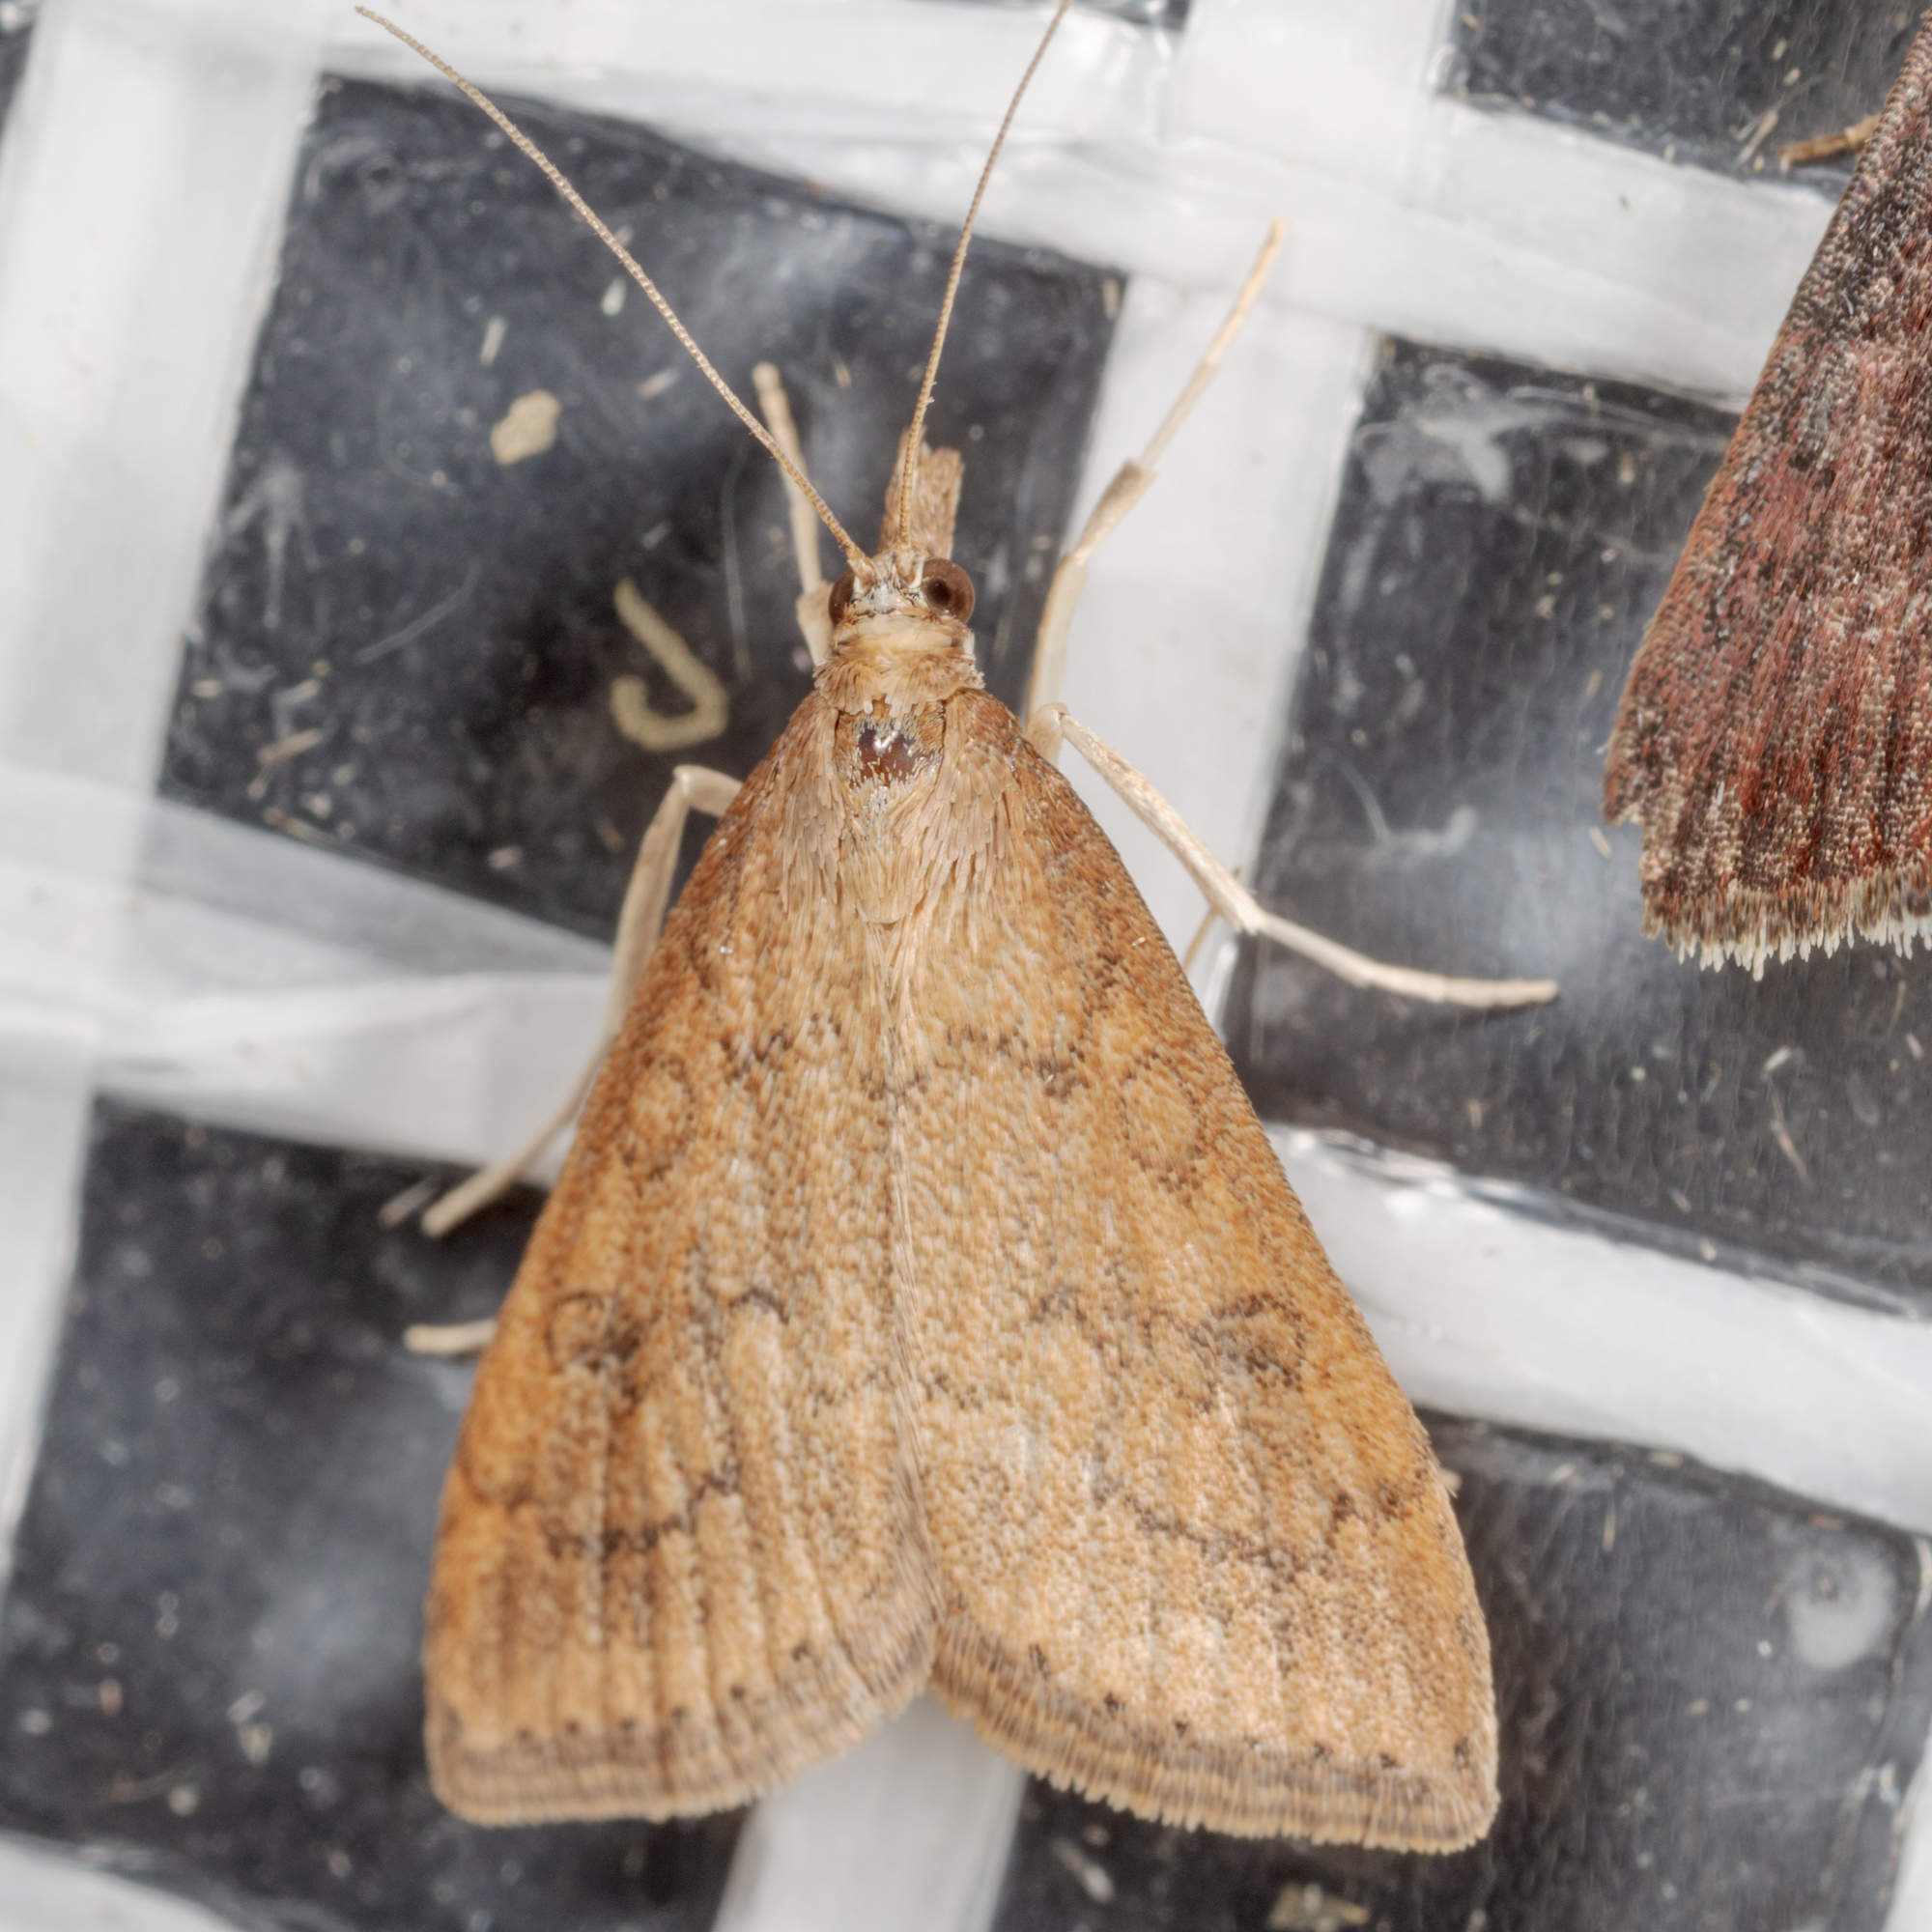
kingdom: Animalia
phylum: Arthropoda
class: Insecta
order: Lepidoptera
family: Crambidae
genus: Udea
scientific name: Udea rubigalis
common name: Celery leaftier moth
